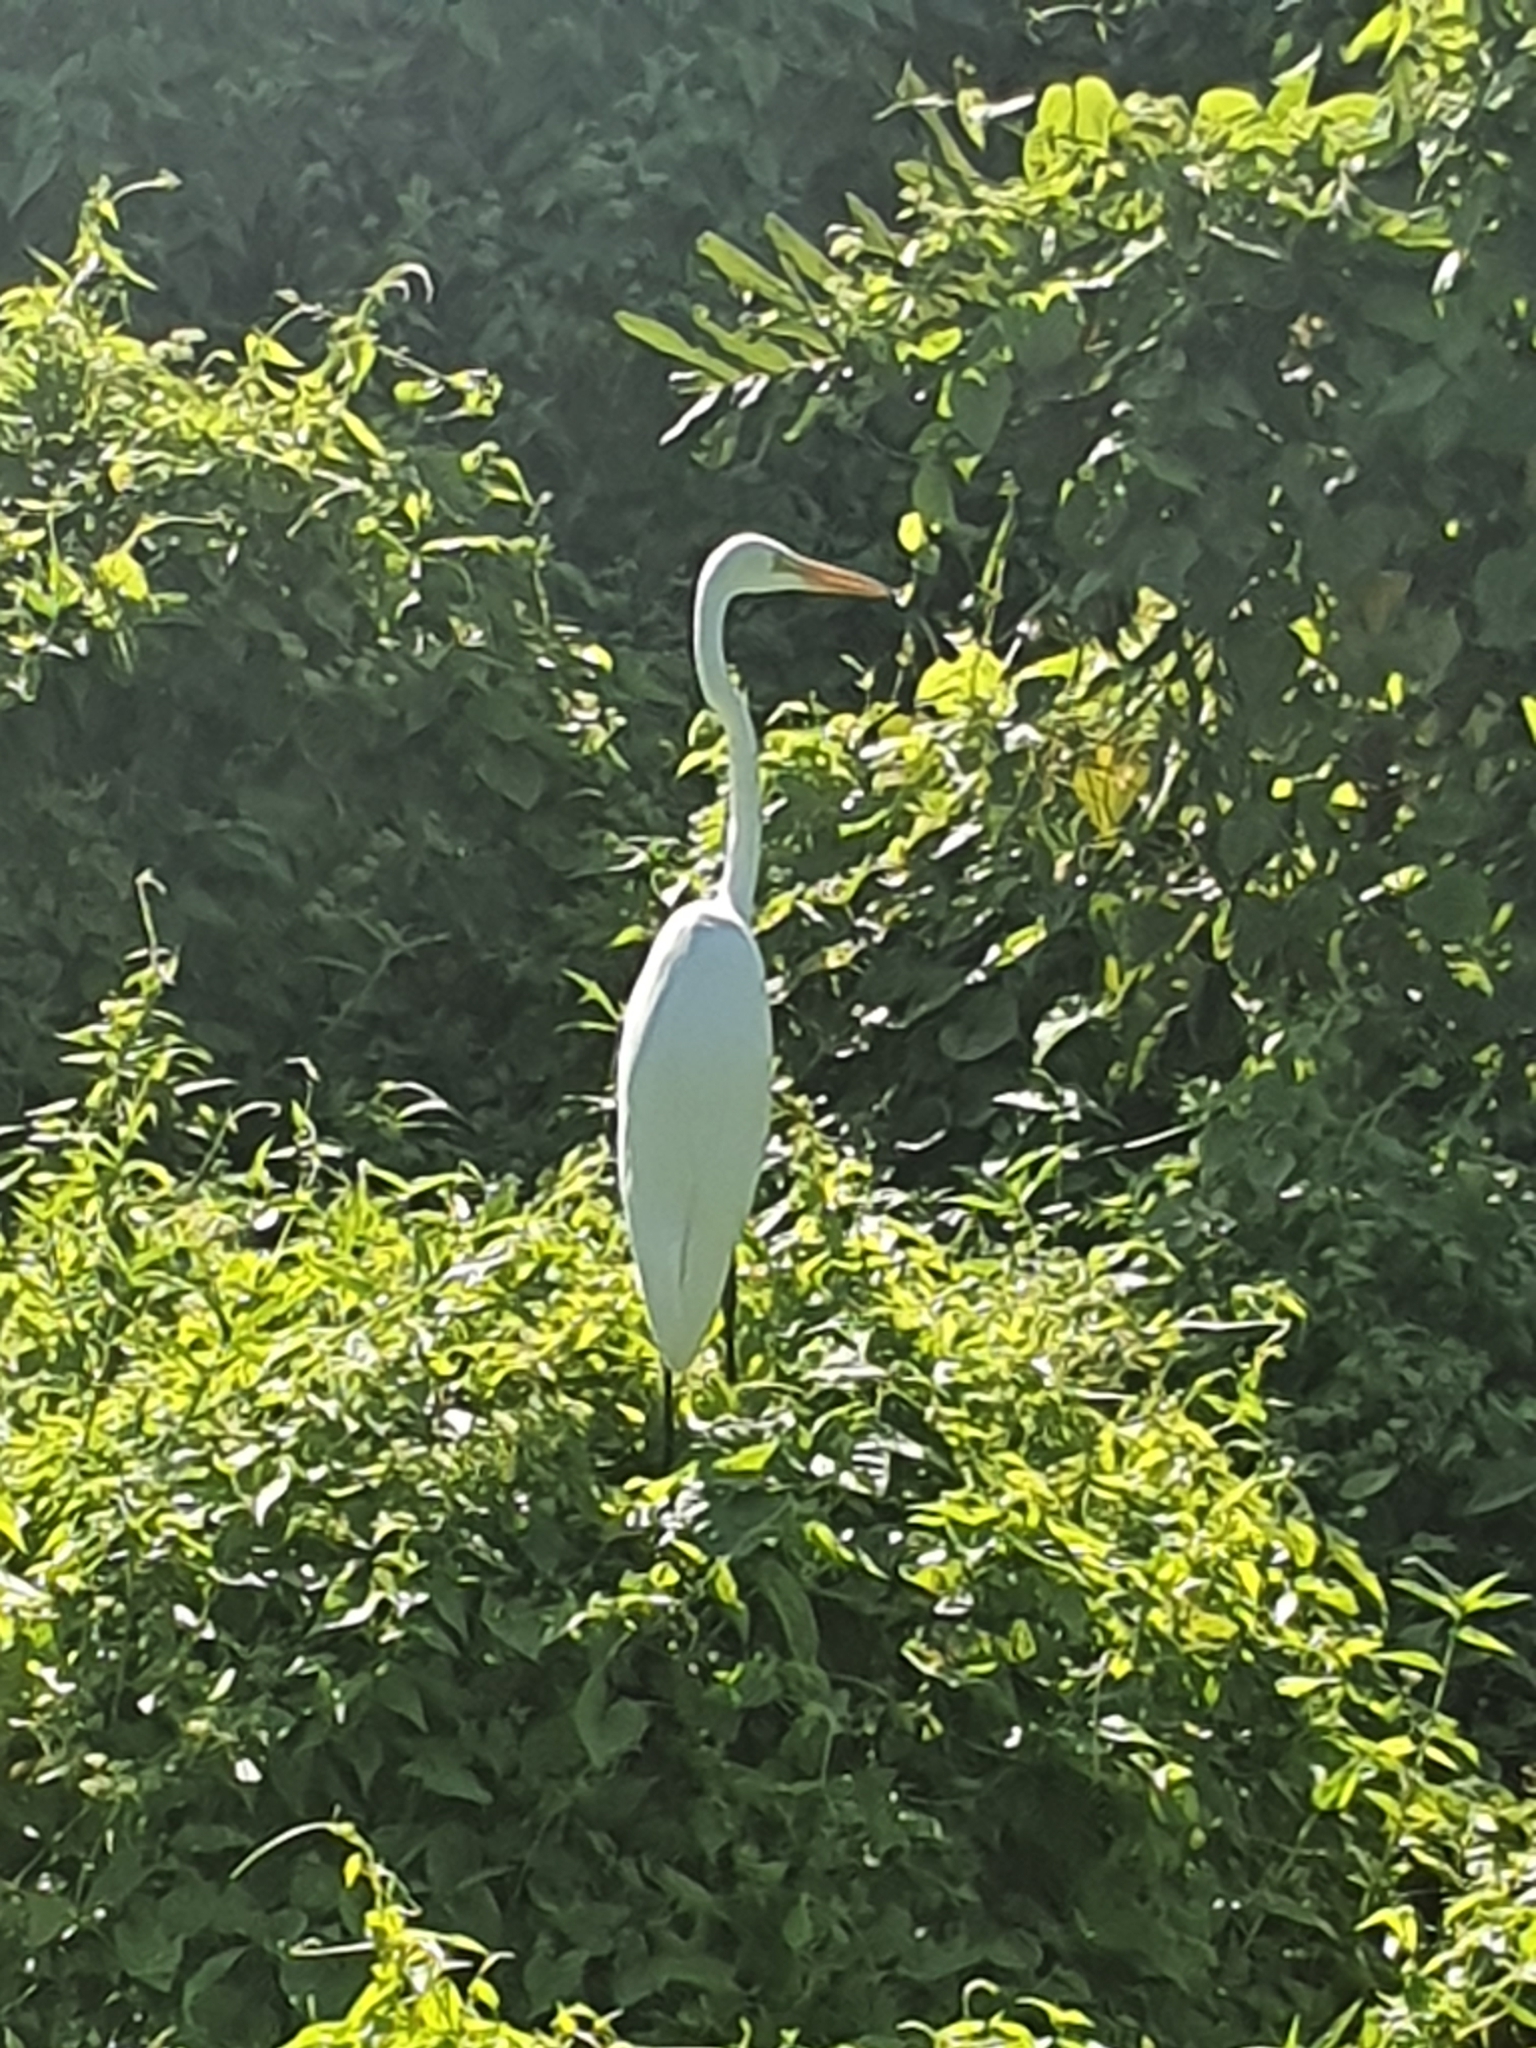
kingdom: Animalia
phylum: Chordata
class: Aves
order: Pelecaniformes
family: Ardeidae
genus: Ardea
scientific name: Ardea alba
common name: Great egret
